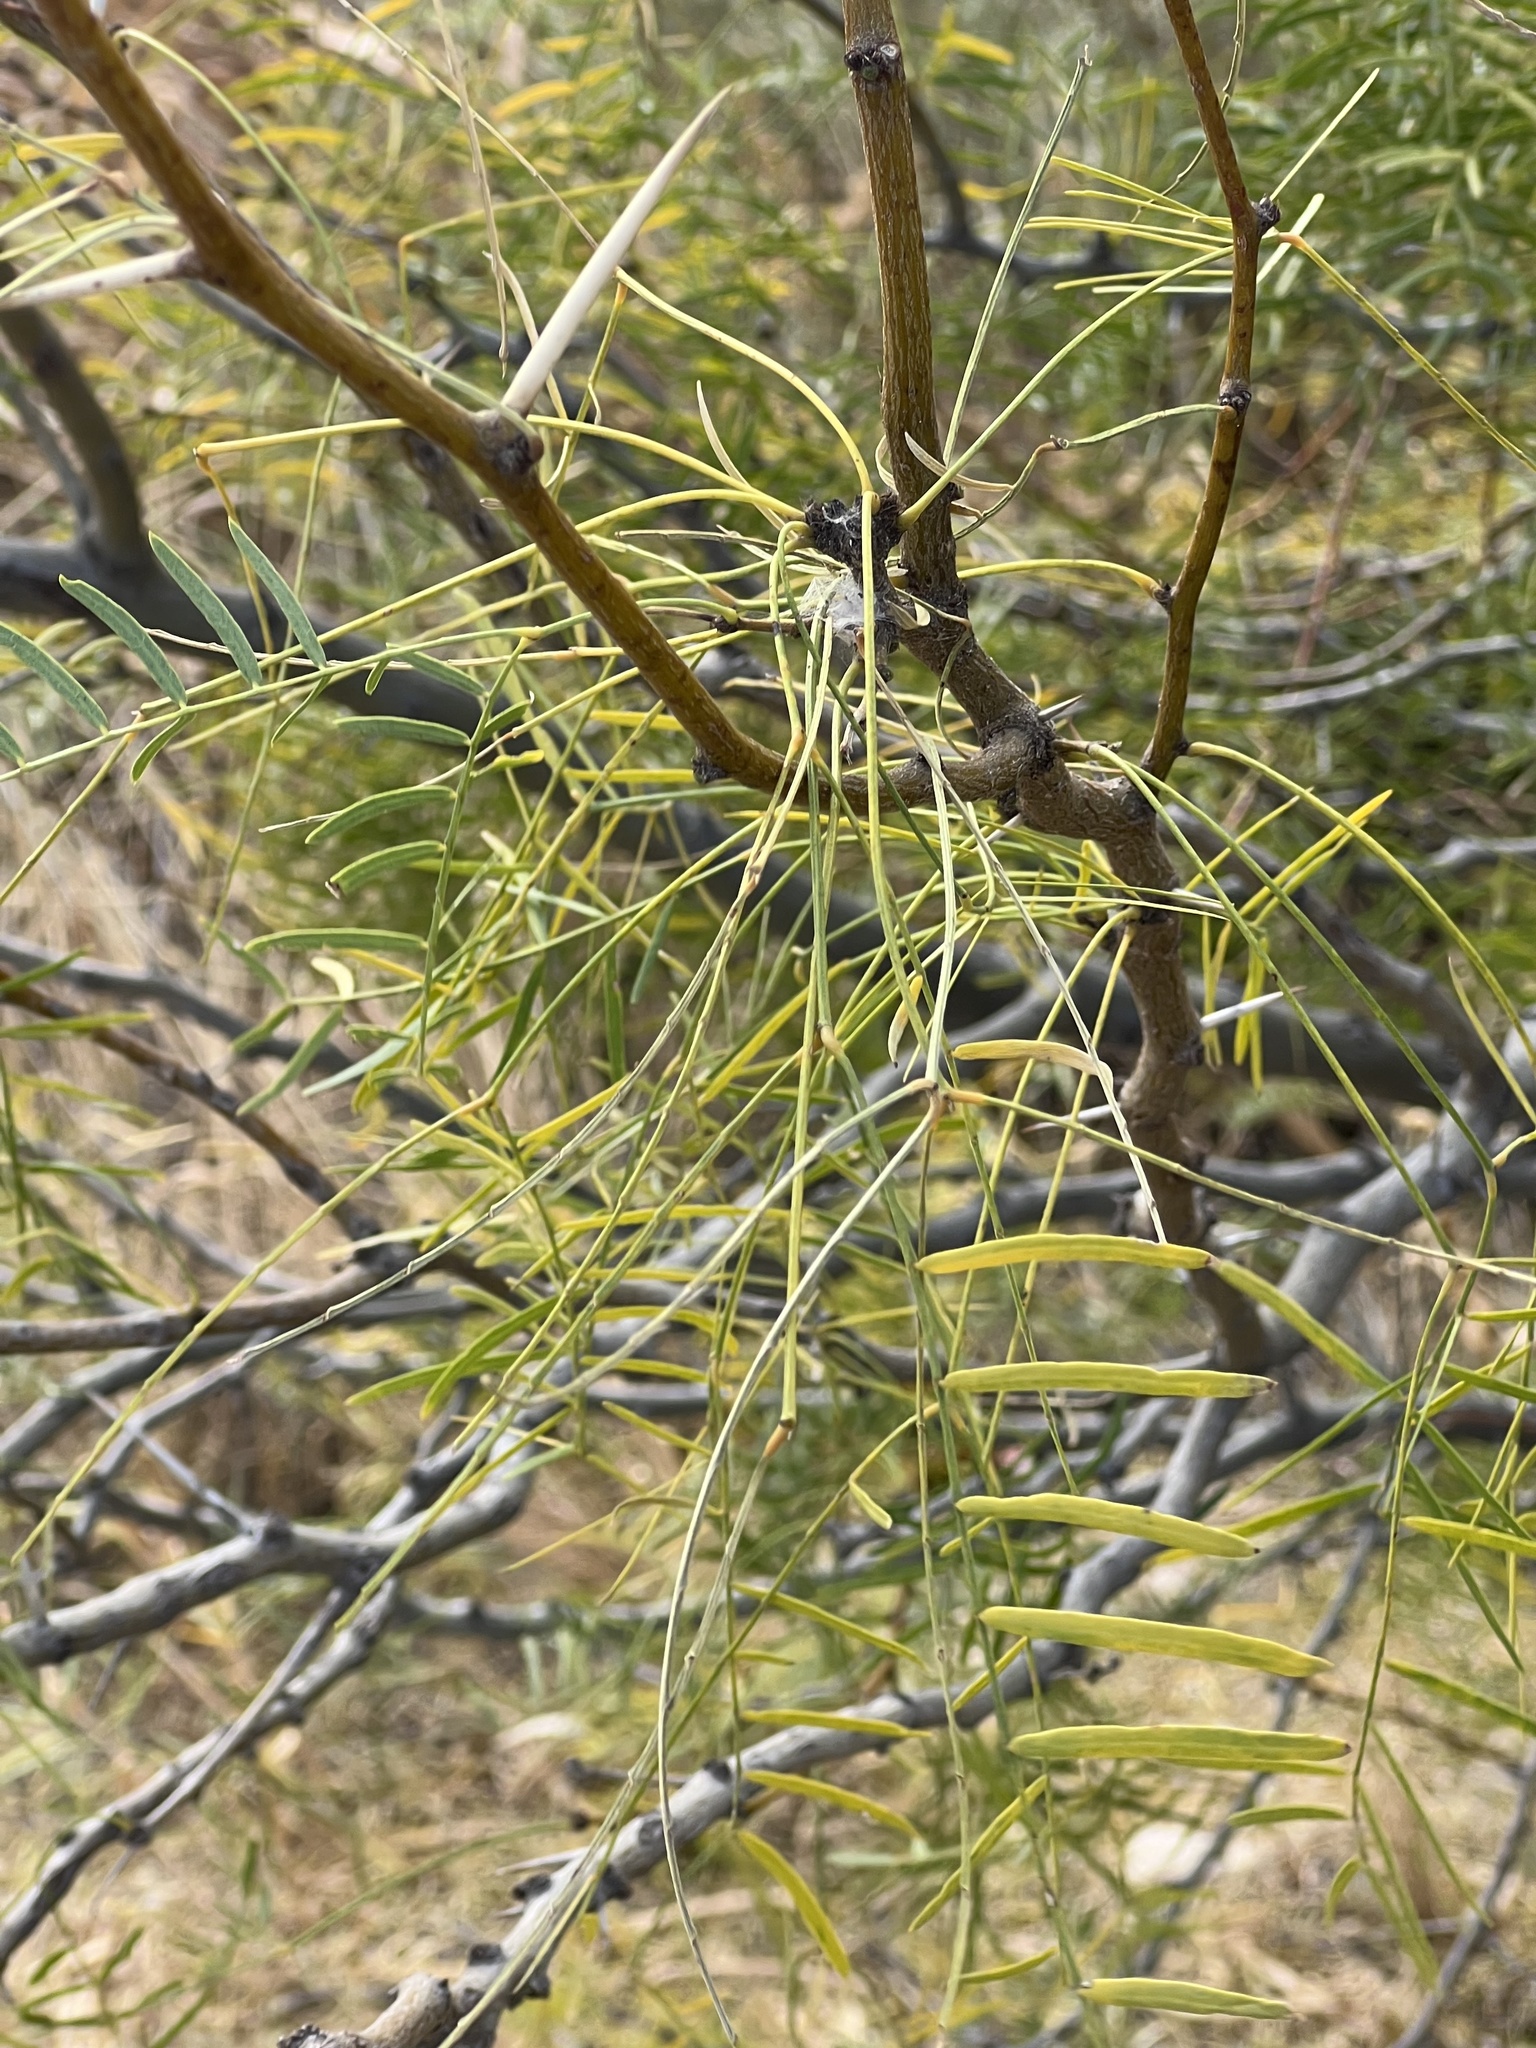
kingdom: Plantae
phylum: Tracheophyta
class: Magnoliopsida
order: Fabales
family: Fabaceae
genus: Prosopis
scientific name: Prosopis glandulosa
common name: Honey mesquite
